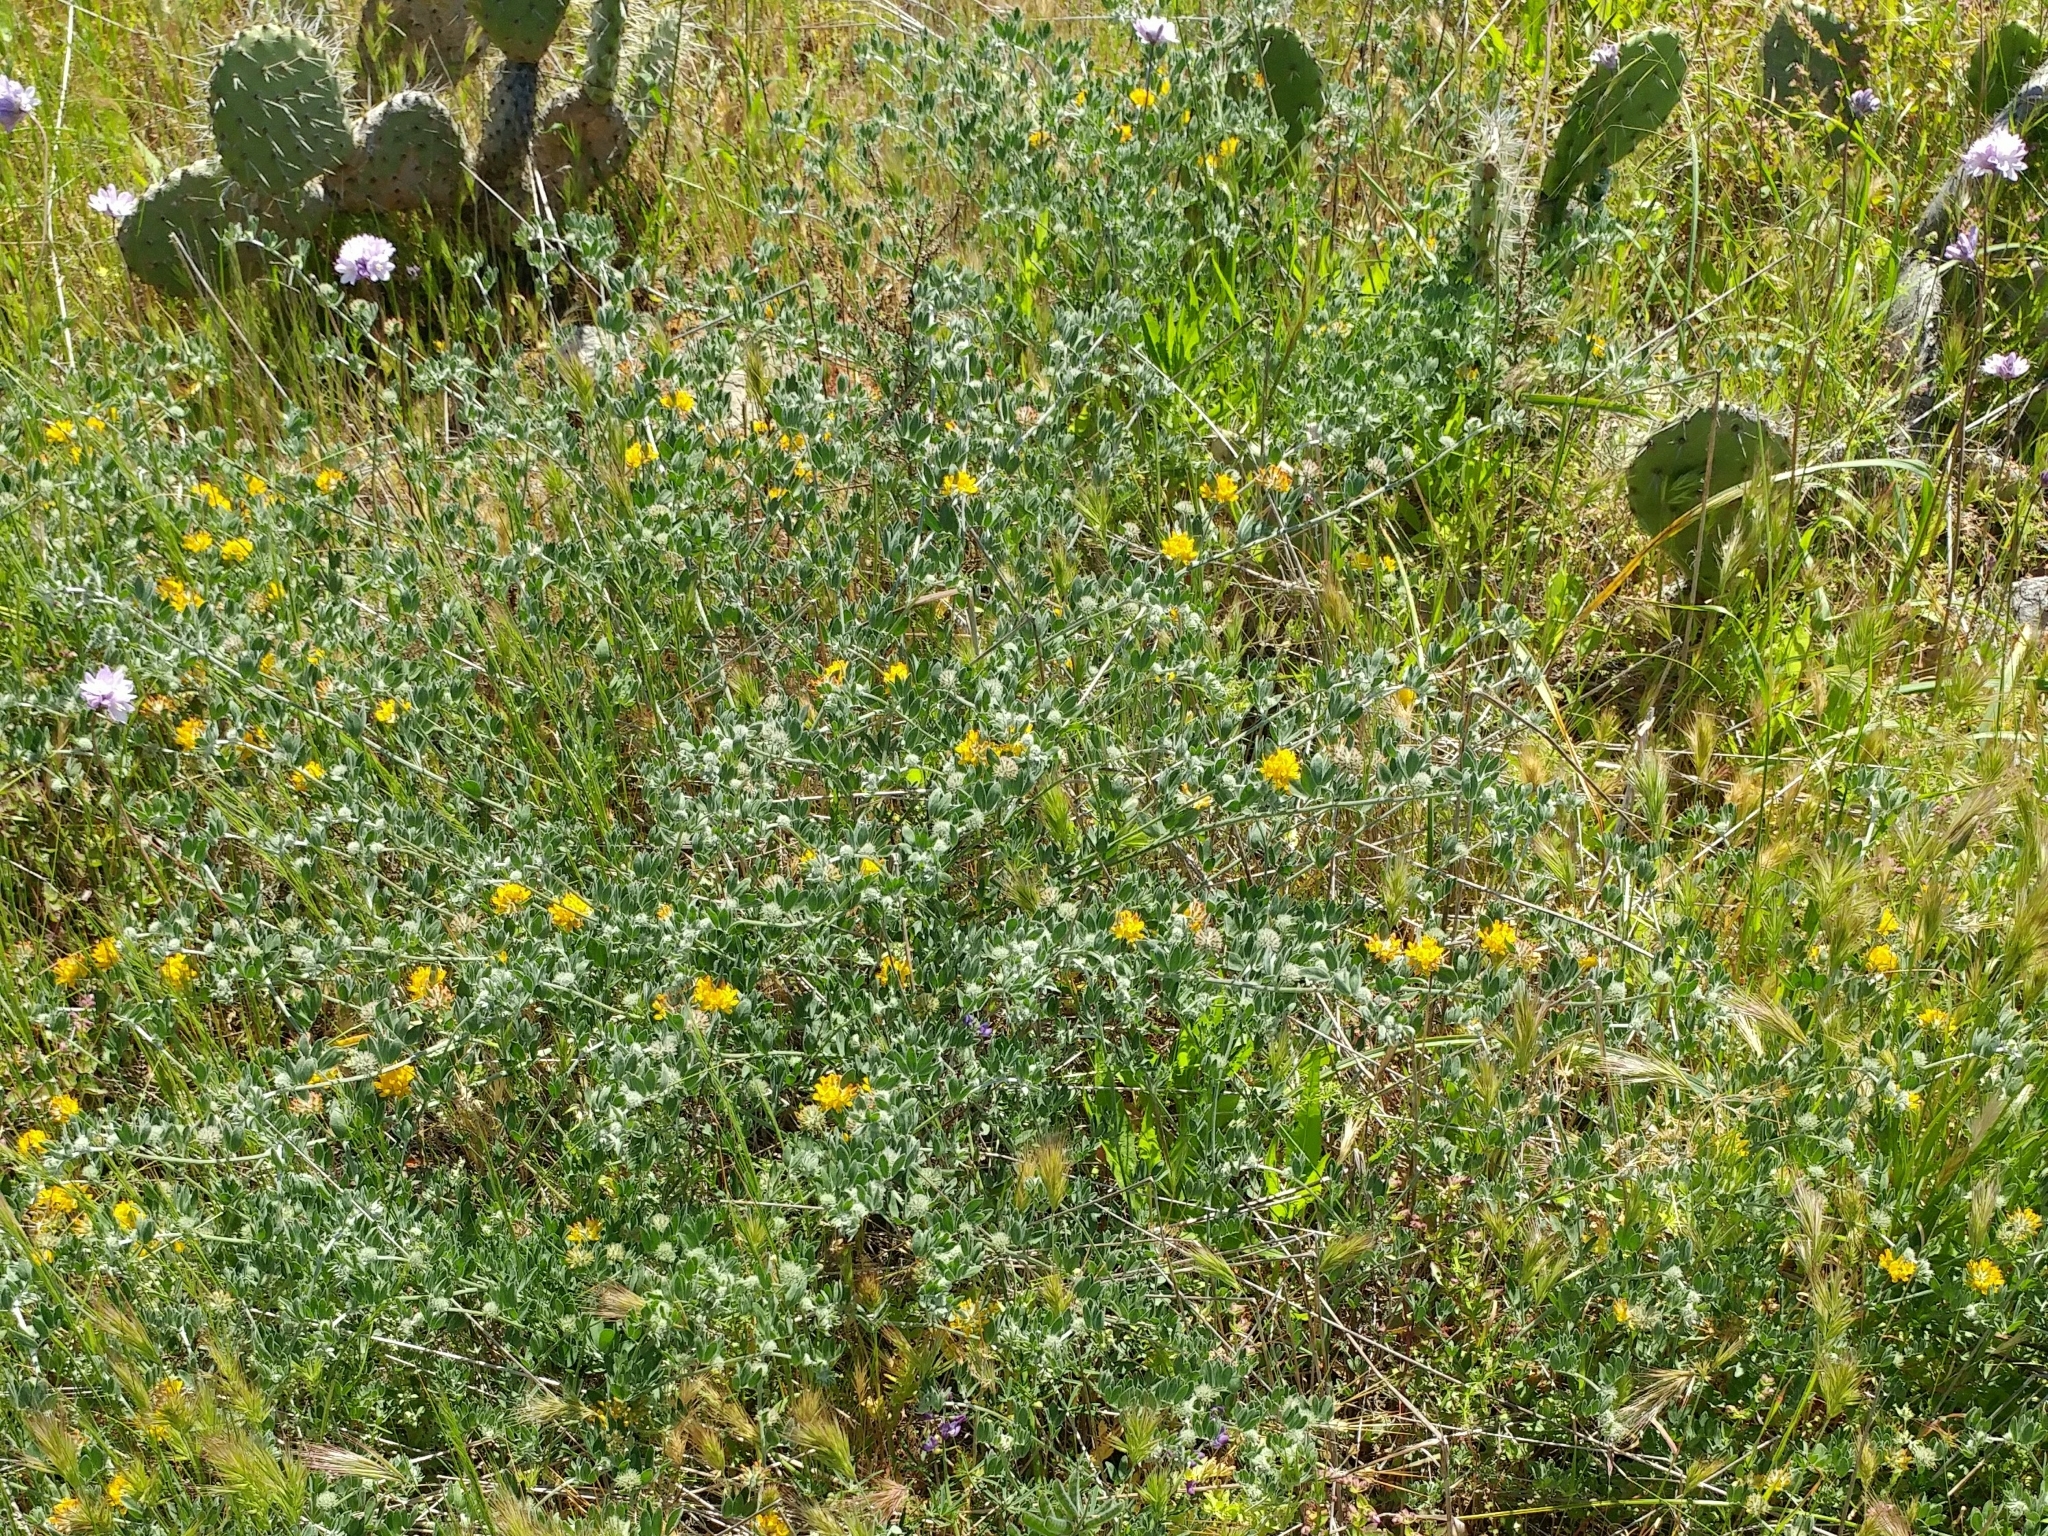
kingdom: Plantae
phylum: Tracheophyta
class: Magnoliopsida
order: Fabales
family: Fabaceae
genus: Acmispon
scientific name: Acmispon argophyllus
